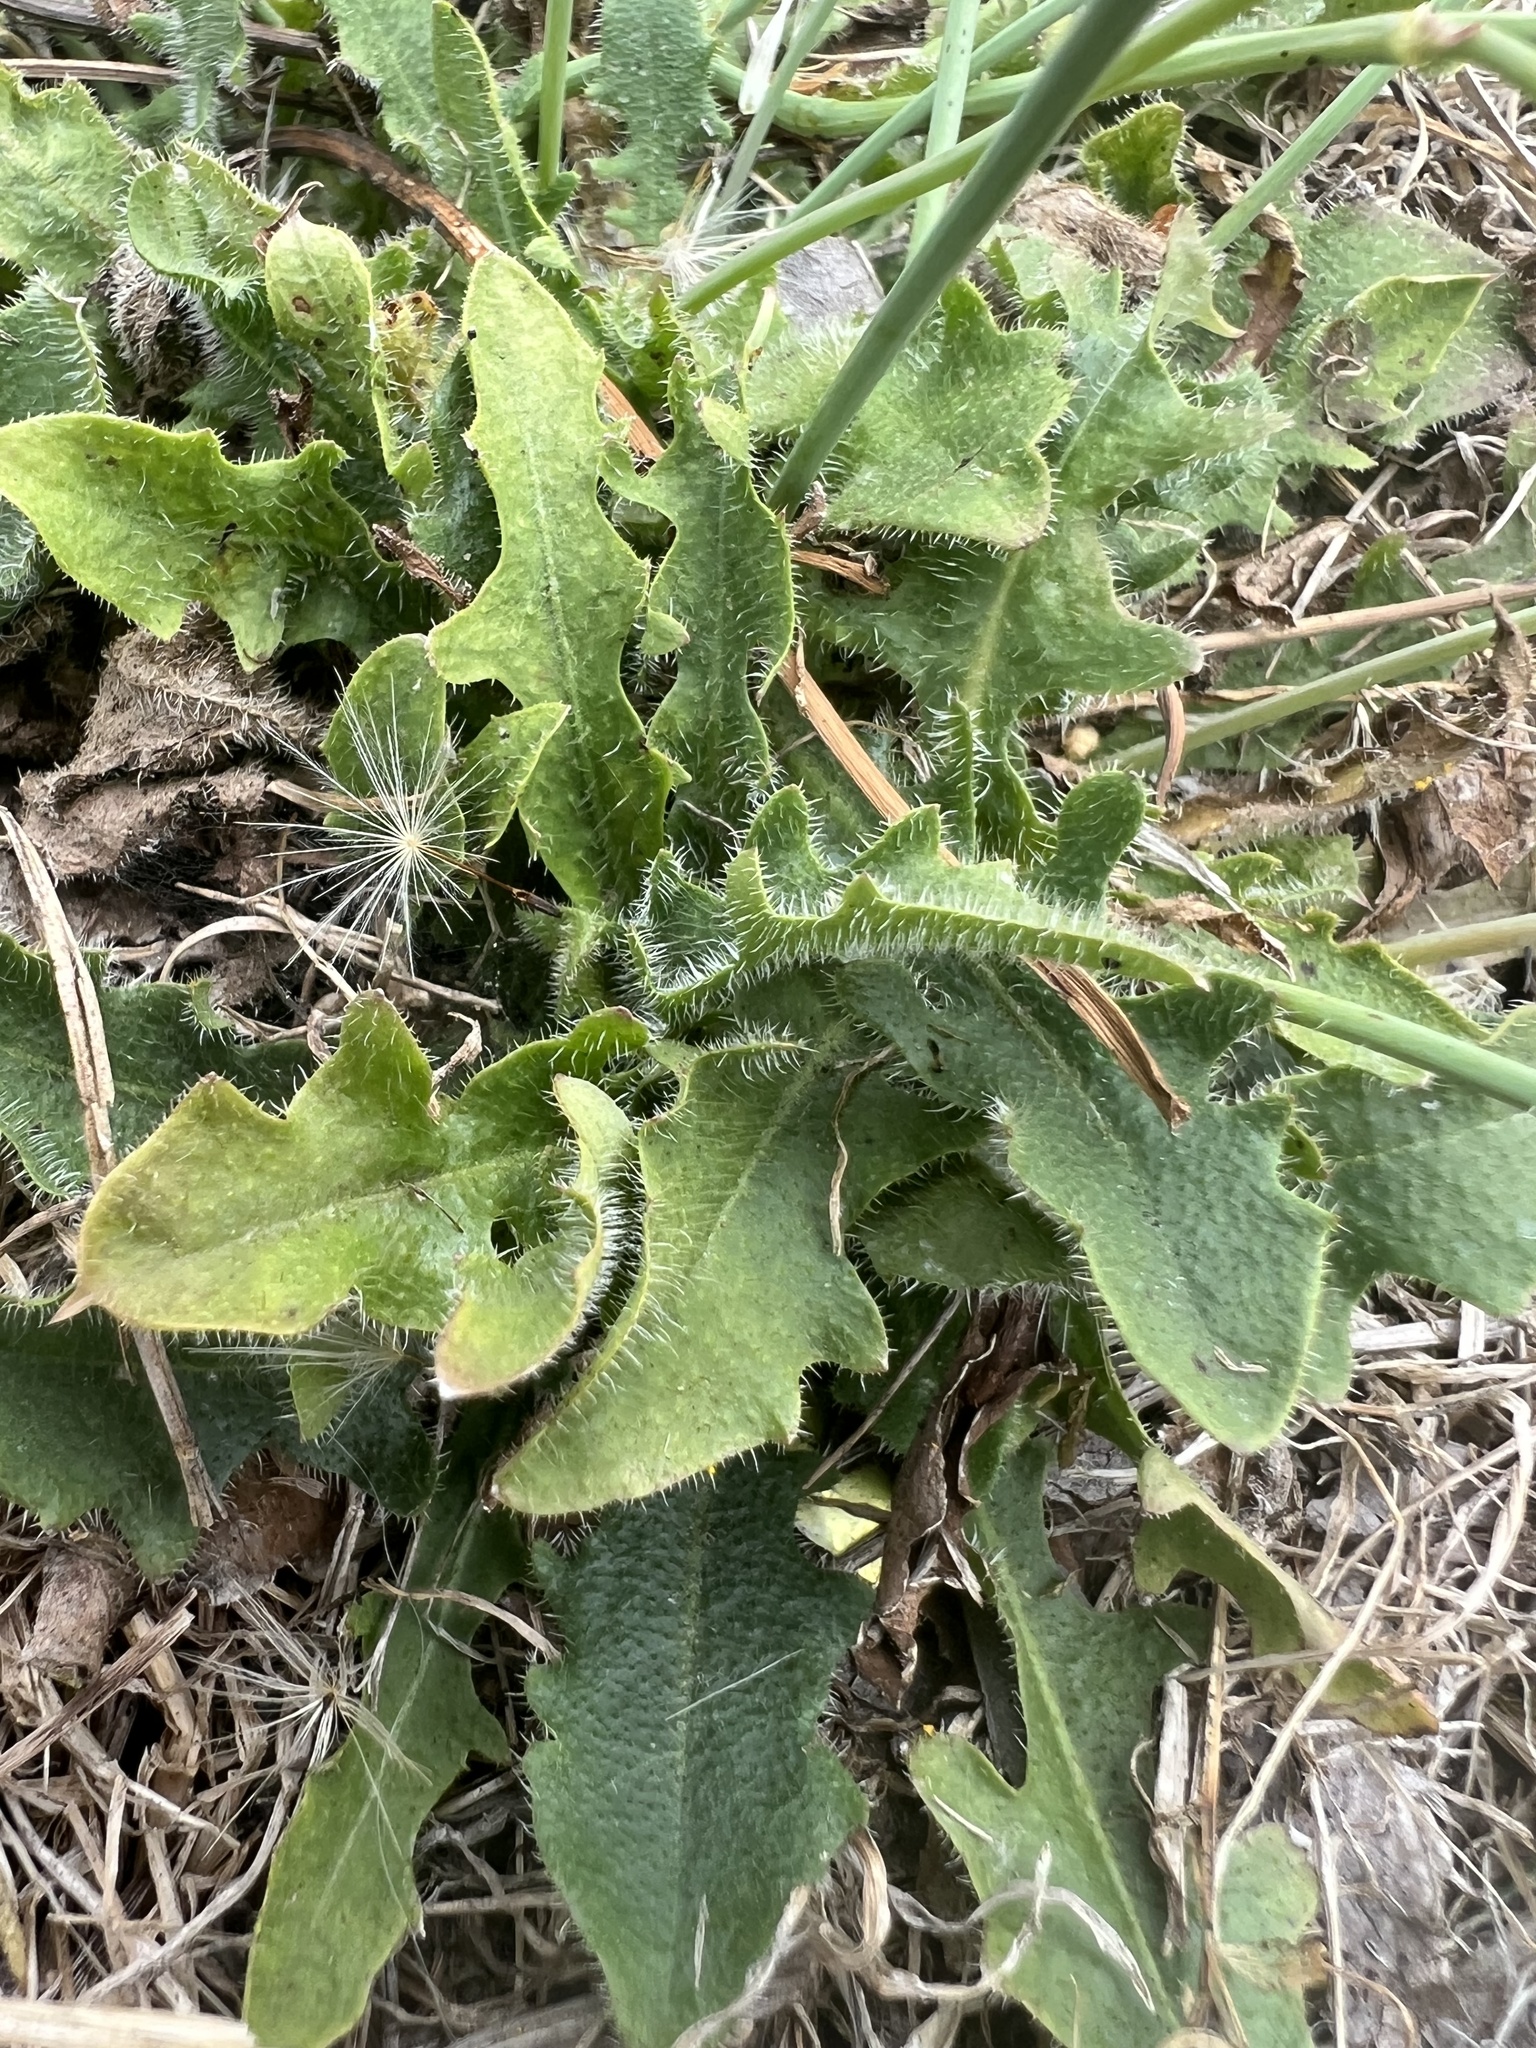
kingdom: Plantae
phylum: Tracheophyta
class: Magnoliopsida
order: Asterales
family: Asteraceae
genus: Hypochaeris
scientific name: Hypochaeris radicata
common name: Flatweed
